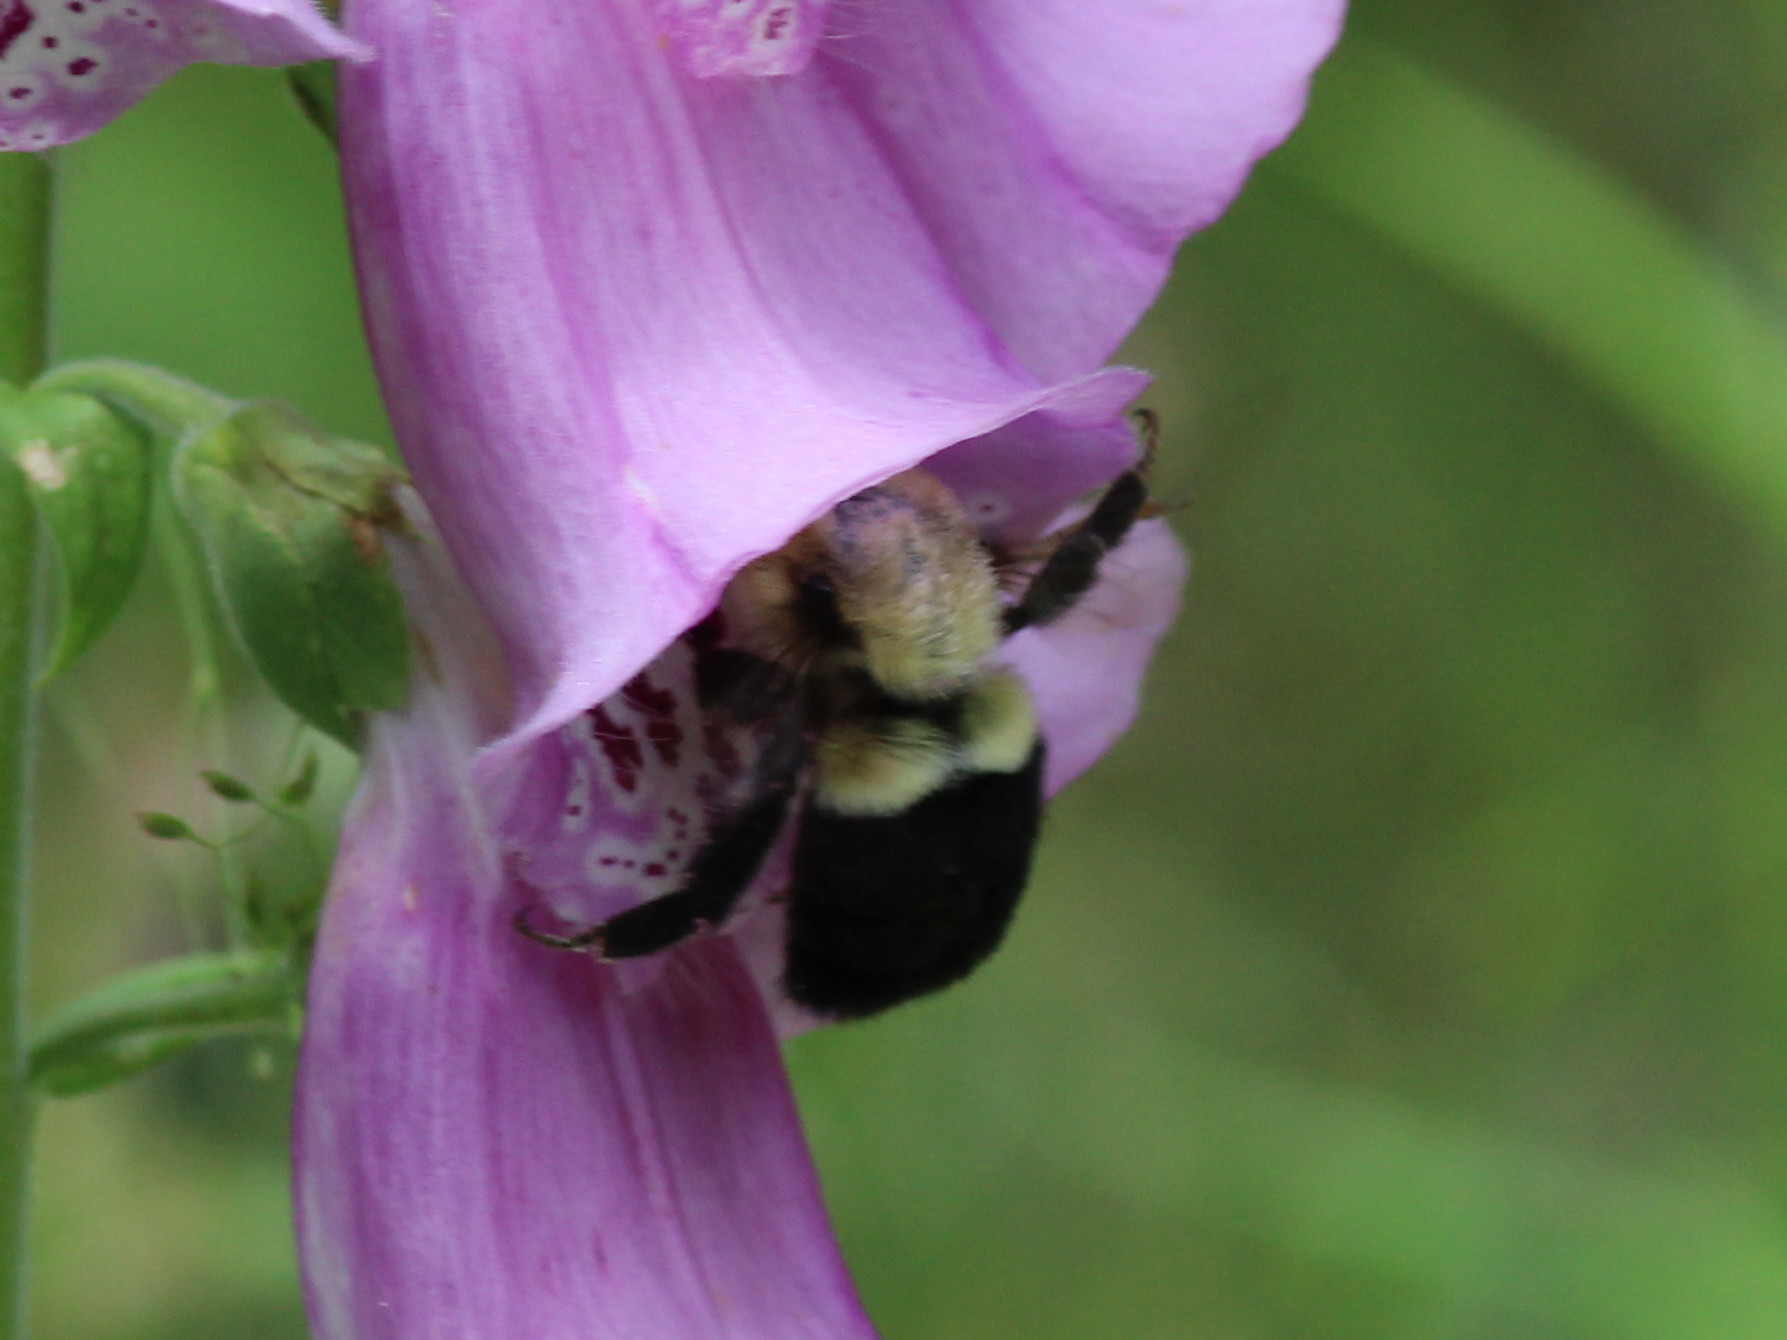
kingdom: Animalia
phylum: Arthropoda
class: Insecta
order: Hymenoptera
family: Apidae
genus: Bombus
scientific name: Bombus impatiens
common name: Common eastern bumble bee
